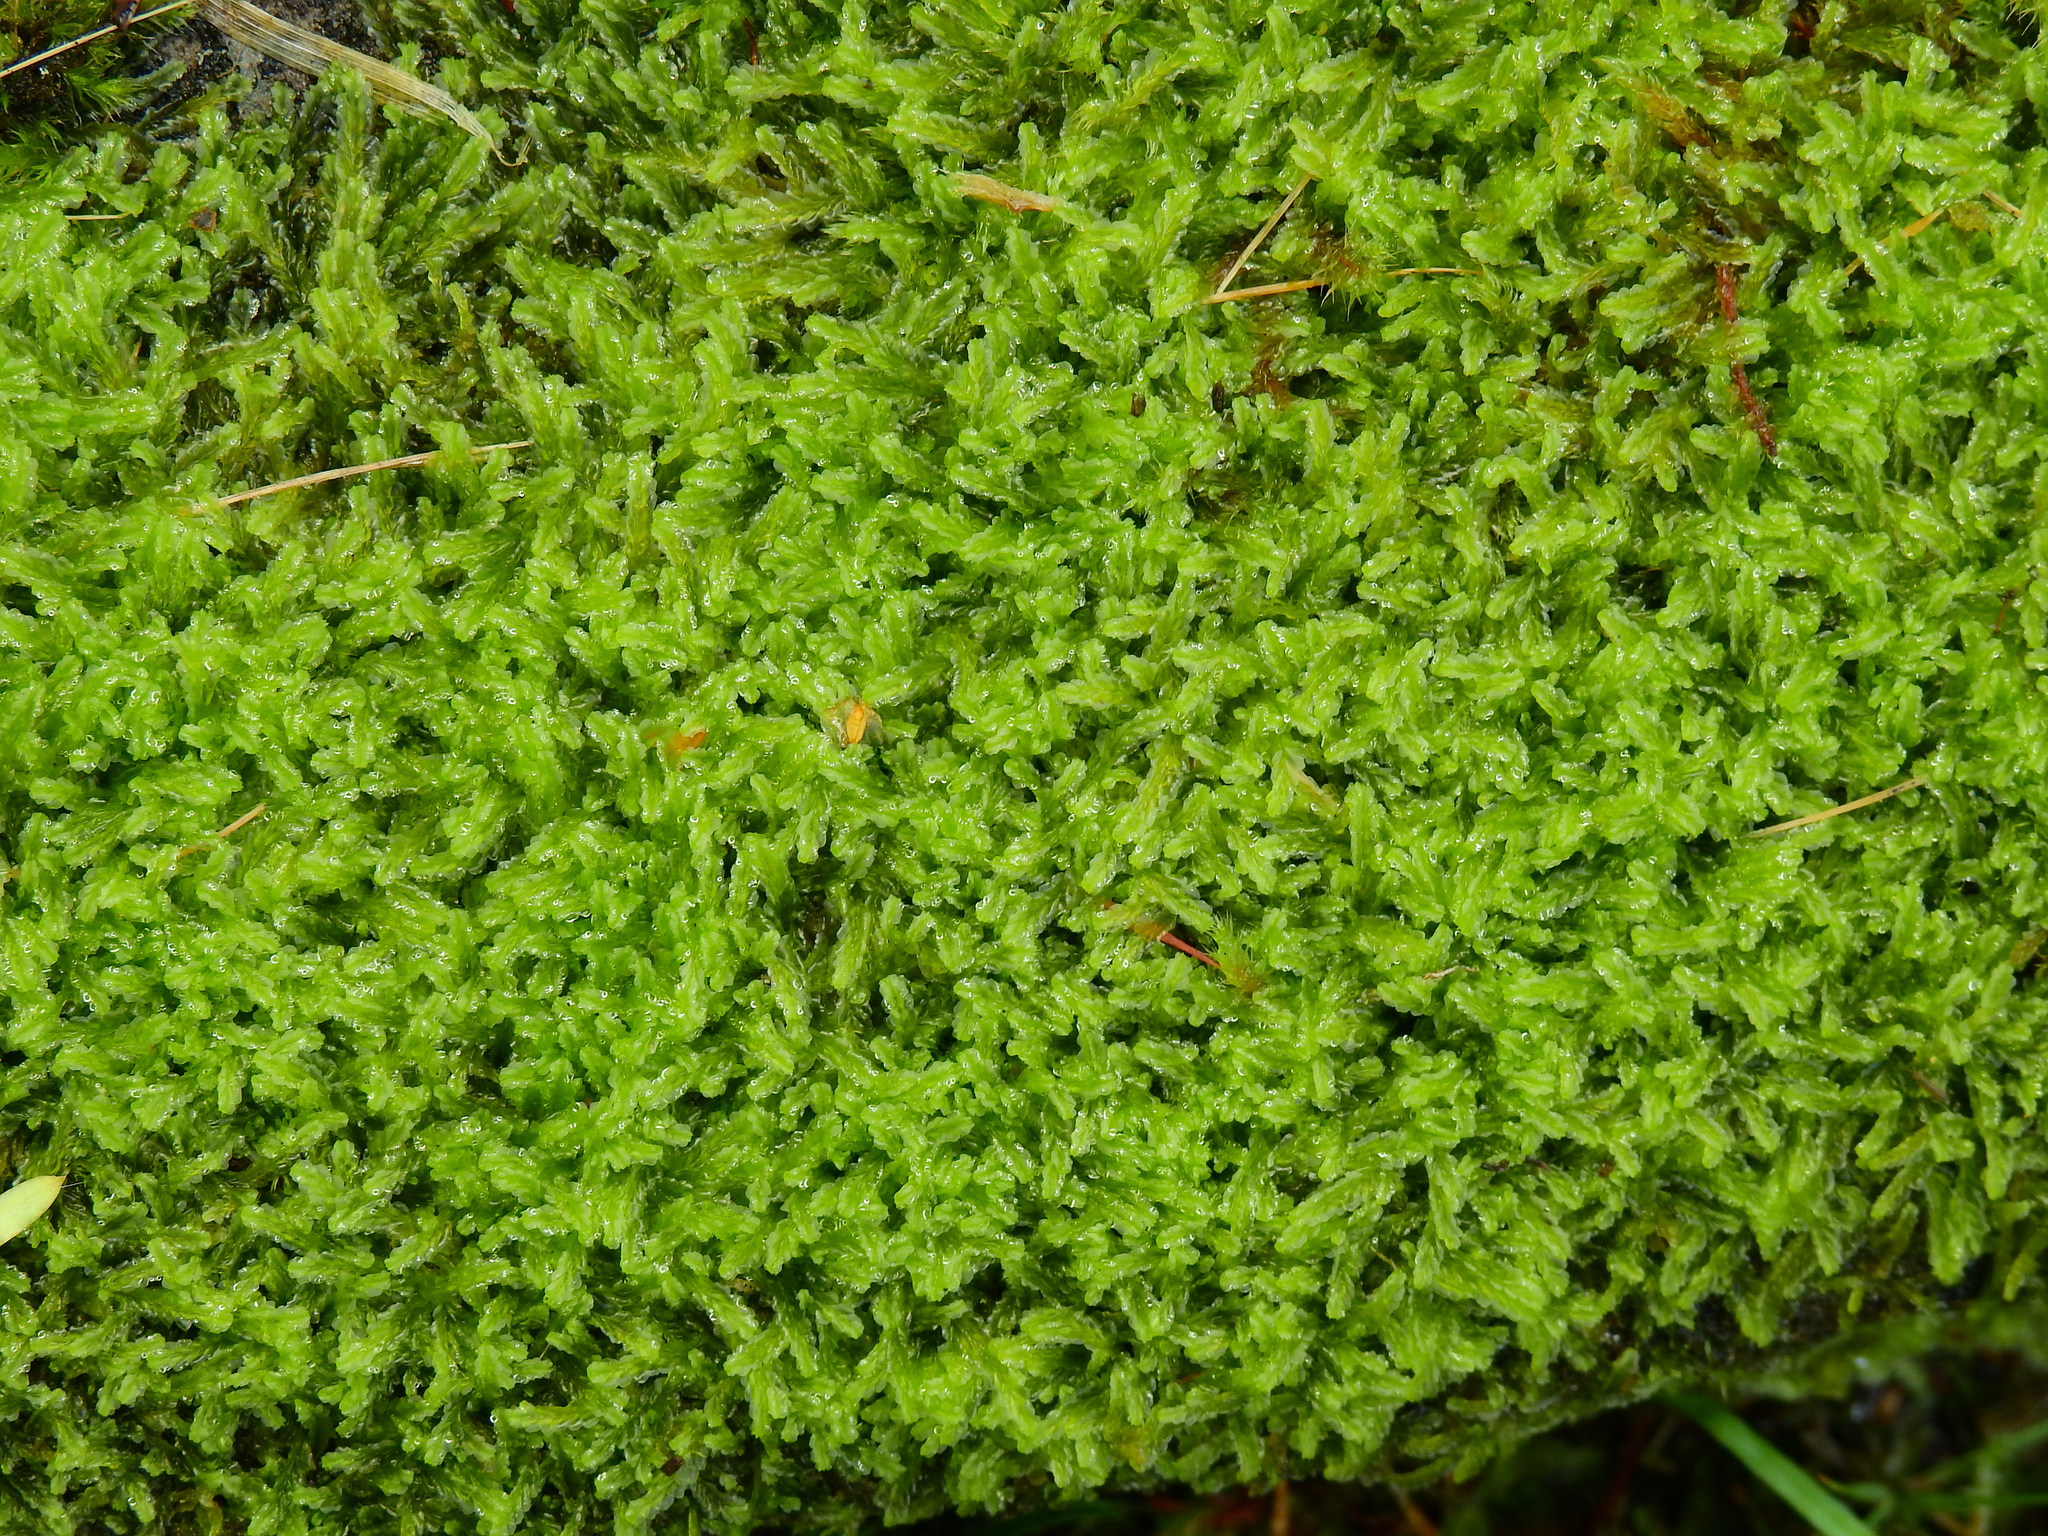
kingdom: Plantae
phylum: Marchantiophyta
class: Jungermanniopsida
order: Jungermanniales
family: Lophocoleaceae
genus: Lophocolea
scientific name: Lophocolea semiteres
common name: Southern crestwort
